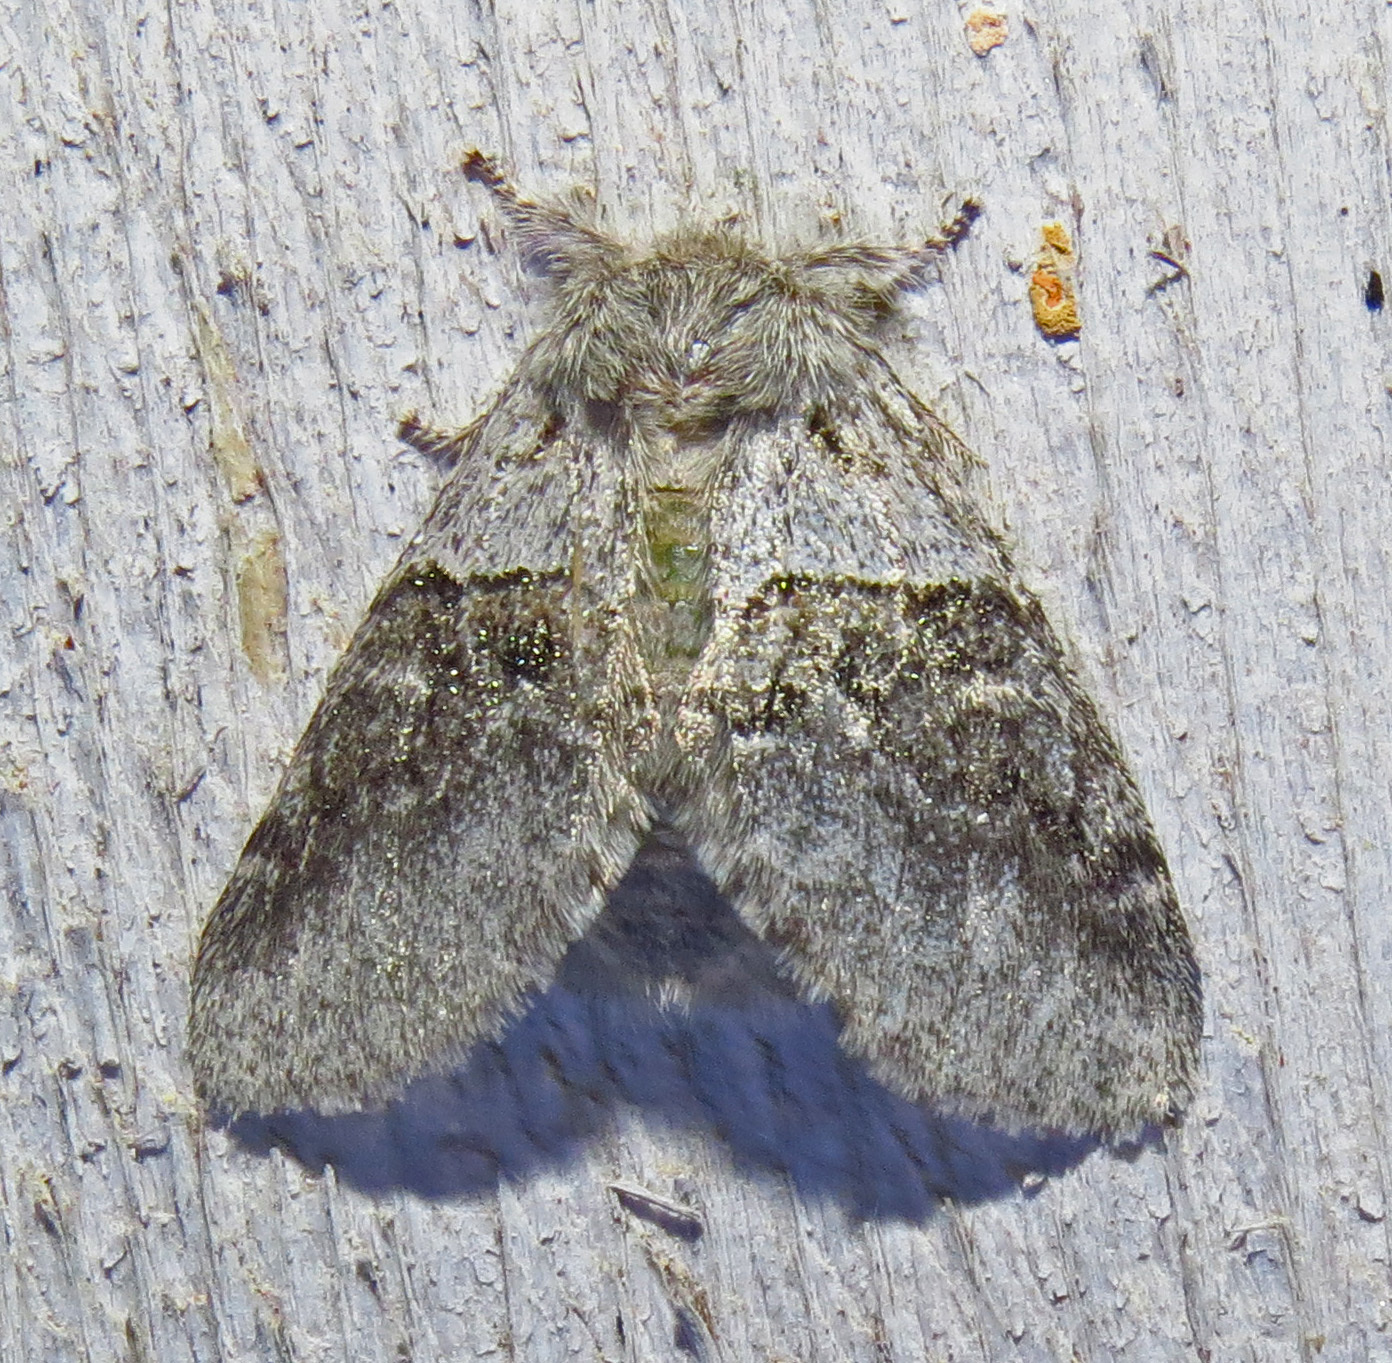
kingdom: Animalia
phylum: Arthropoda
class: Insecta
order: Lepidoptera
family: Notodontidae
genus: Gluphisia
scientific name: Gluphisia septentrionis
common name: Common gluphisia
